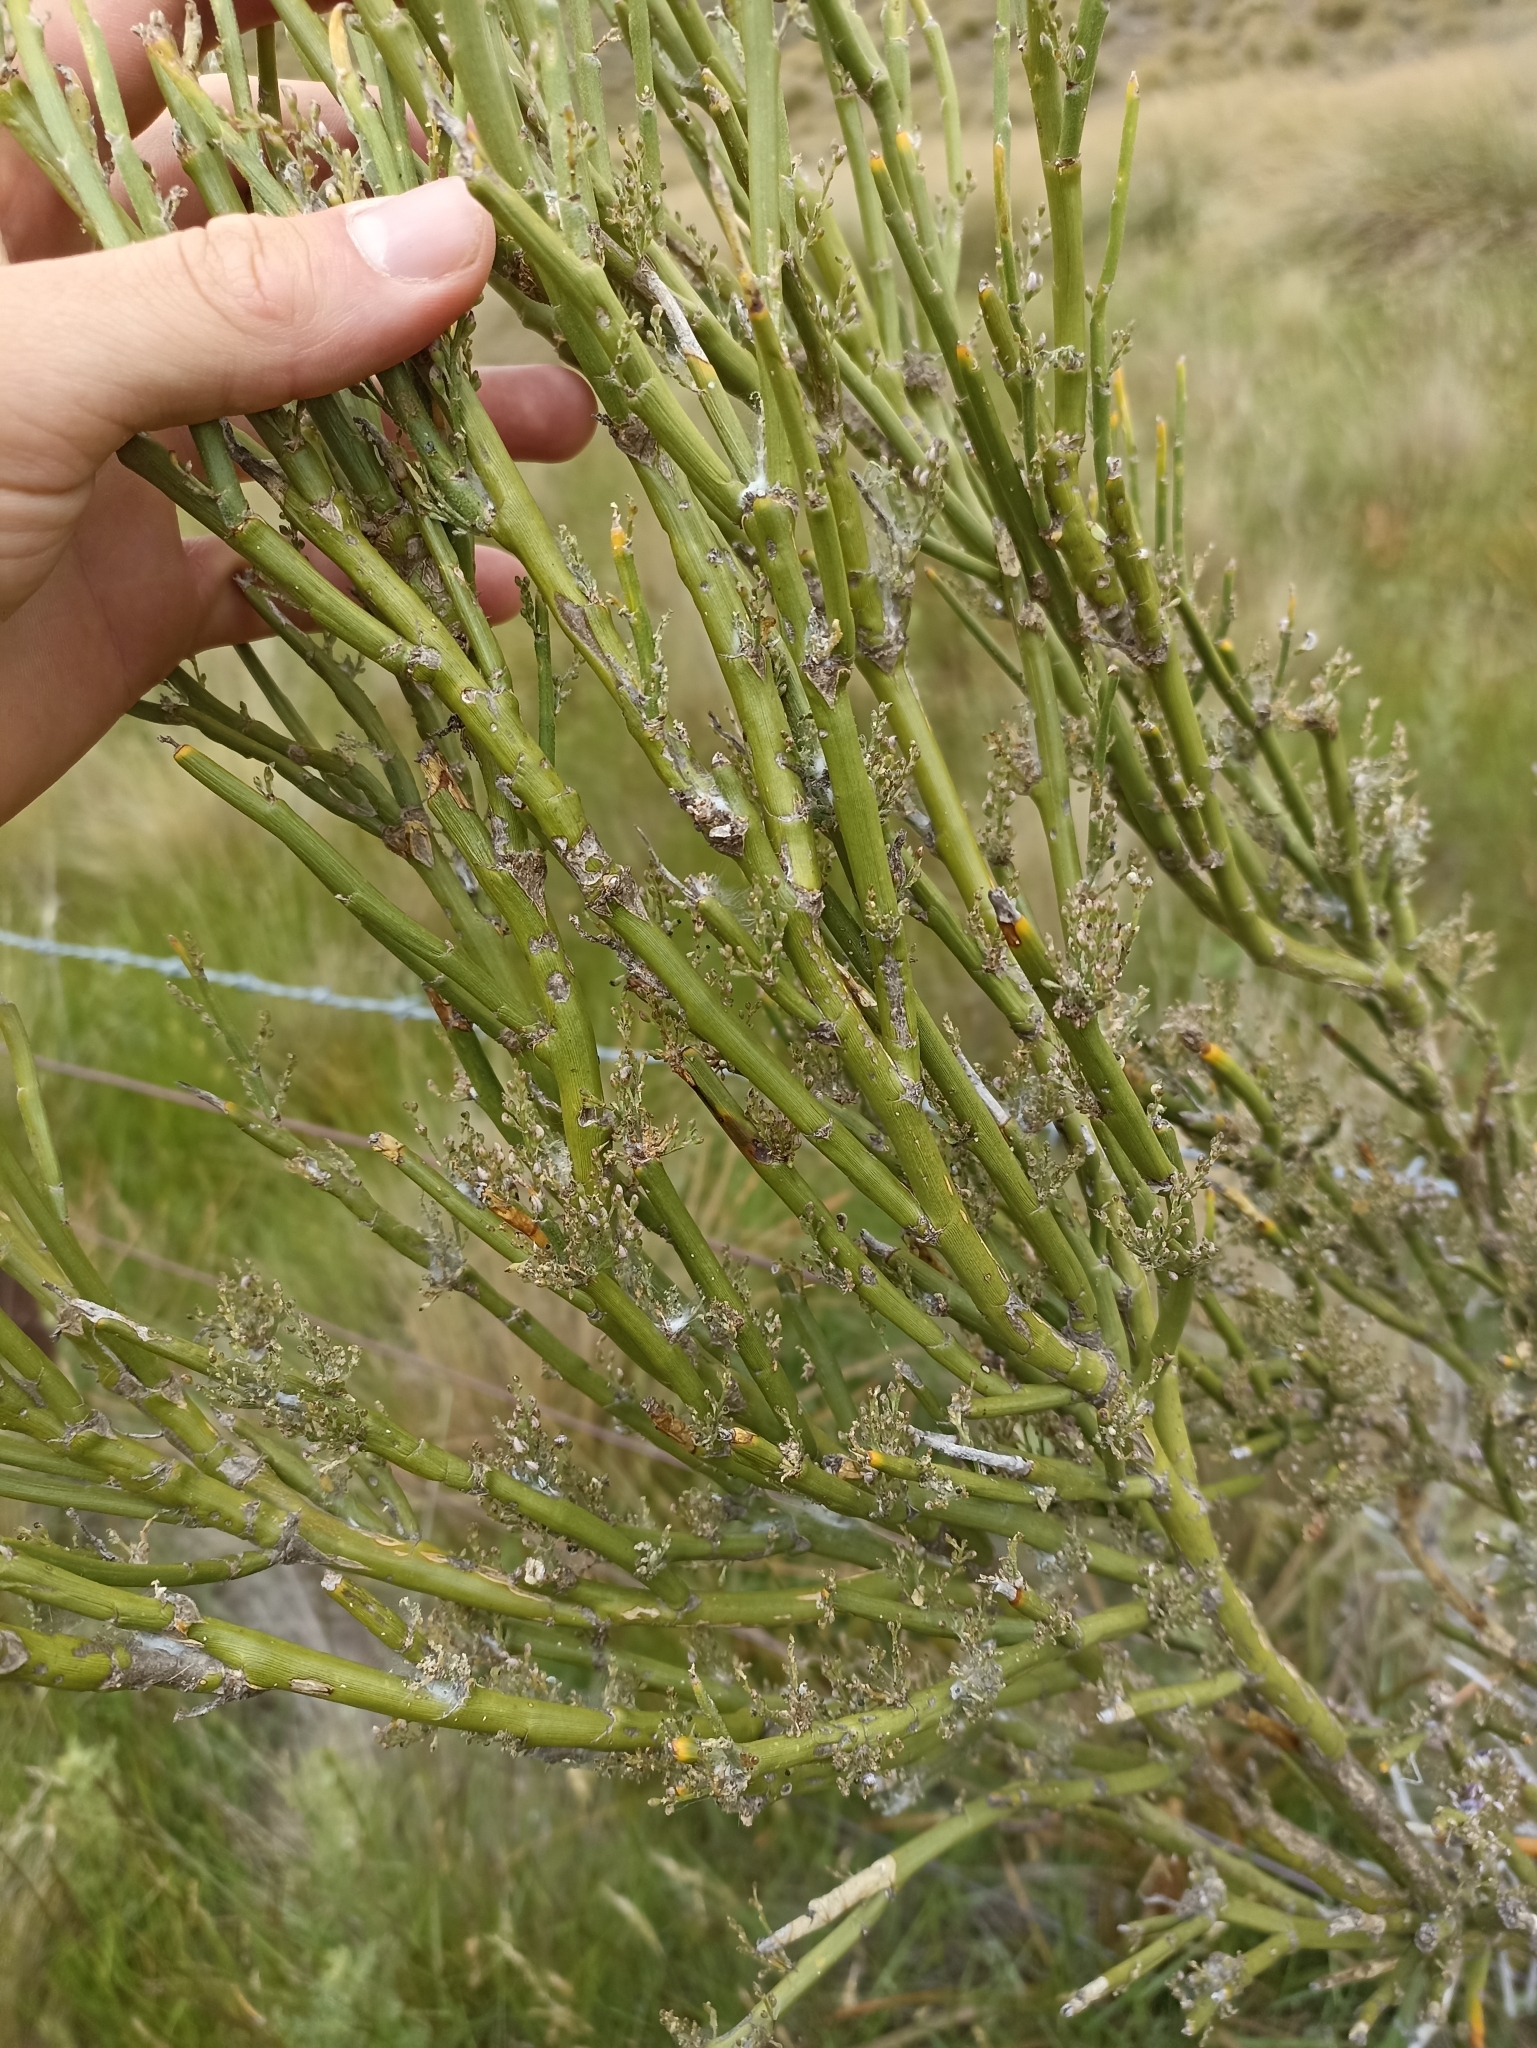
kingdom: Plantae
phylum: Tracheophyta
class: Magnoliopsida
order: Fabales
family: Fabaceae
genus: Carmichaelia
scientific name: Carmichaelia petriei
